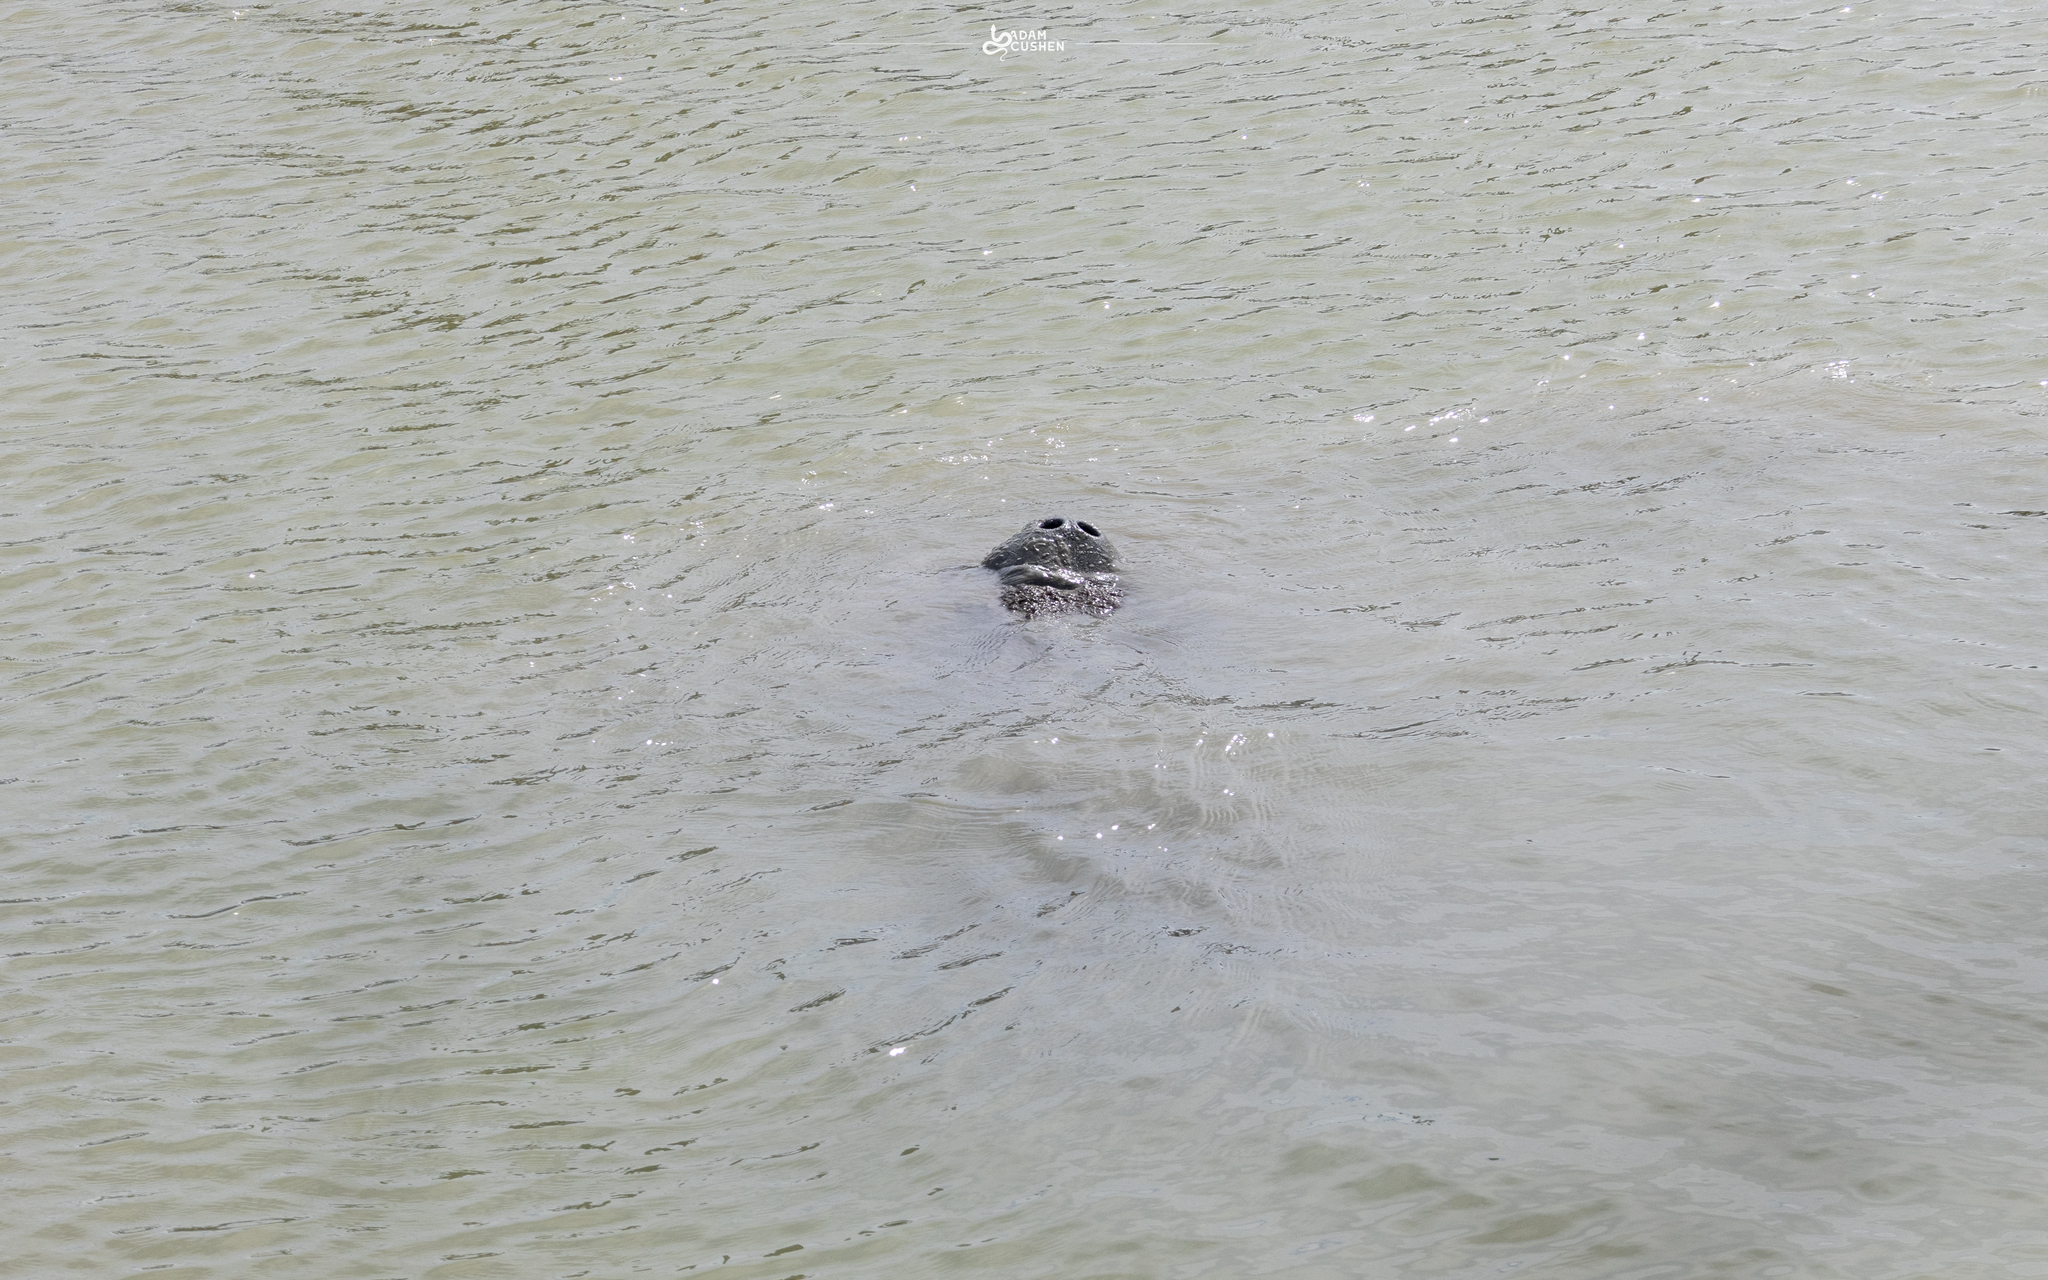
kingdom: Animalia
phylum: Chordata
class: Mammalia
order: Sirenia
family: Trichechidae
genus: Trichechus
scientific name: Trichechus manatus
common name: West indian manatee
